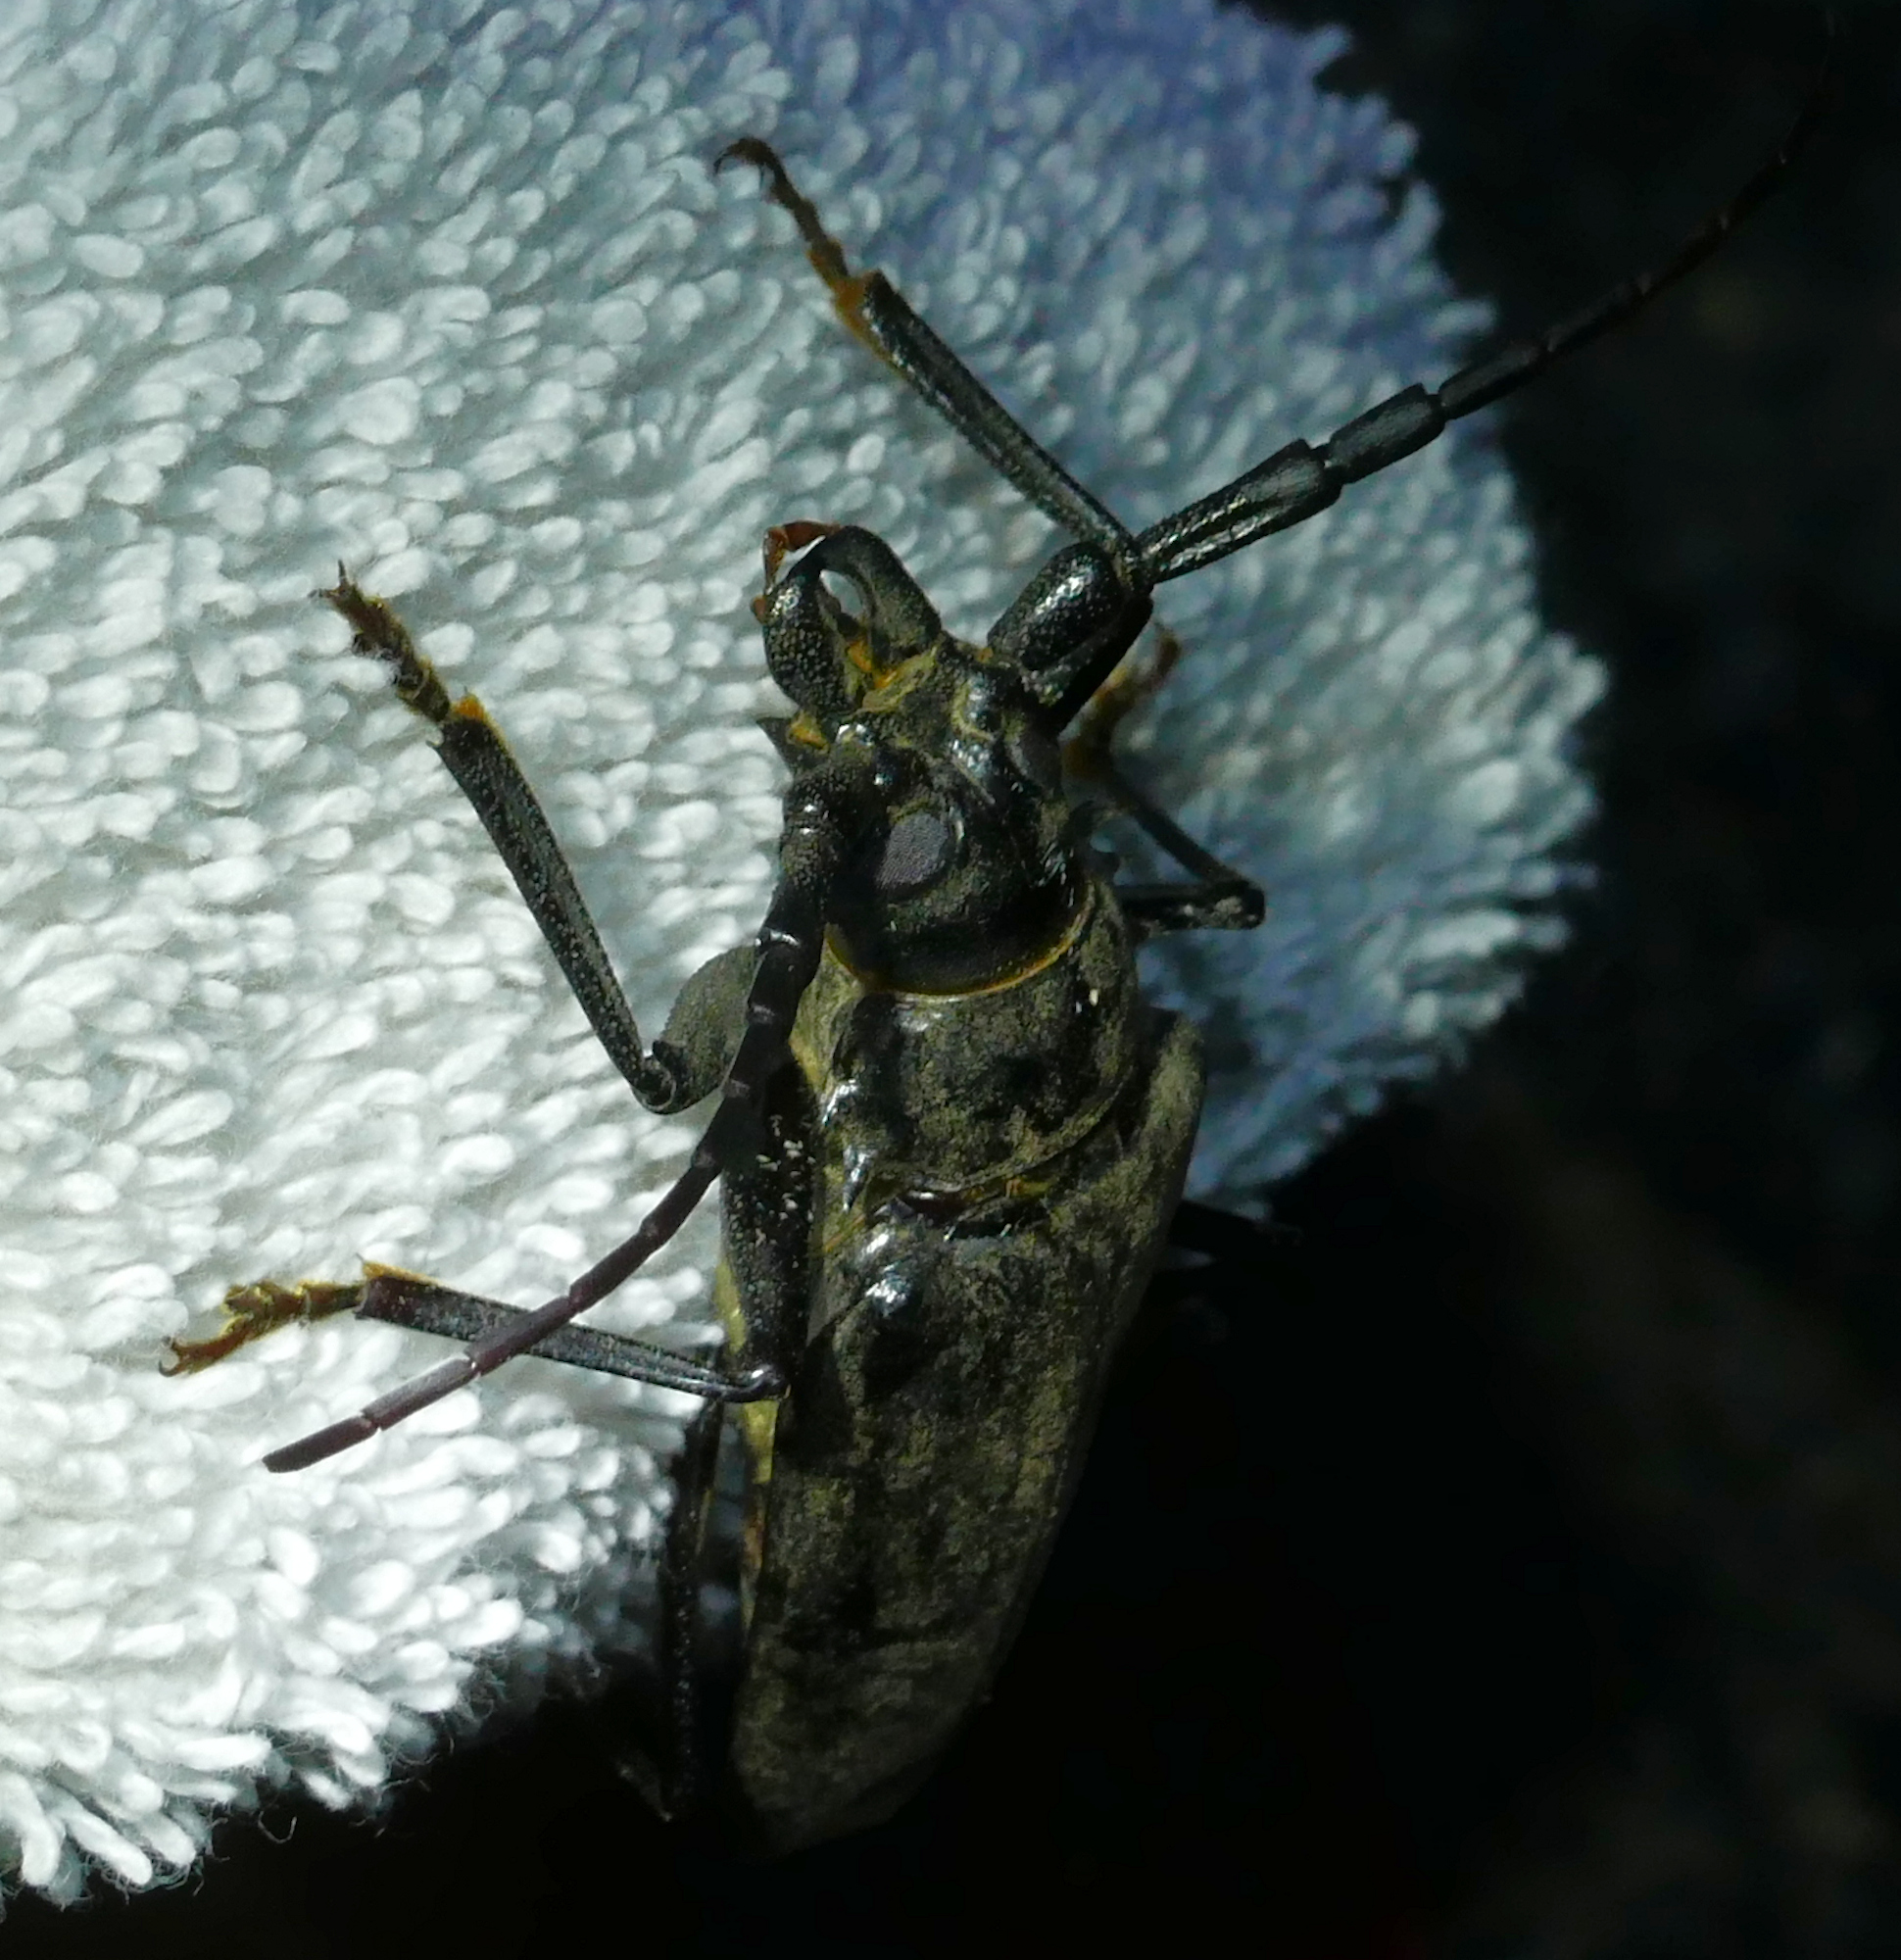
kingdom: Animalia
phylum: Arthropoda
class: Insecta
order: Coleoptera
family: Cerambycidae
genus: Derobrachus
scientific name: Derobrachus hovorei
